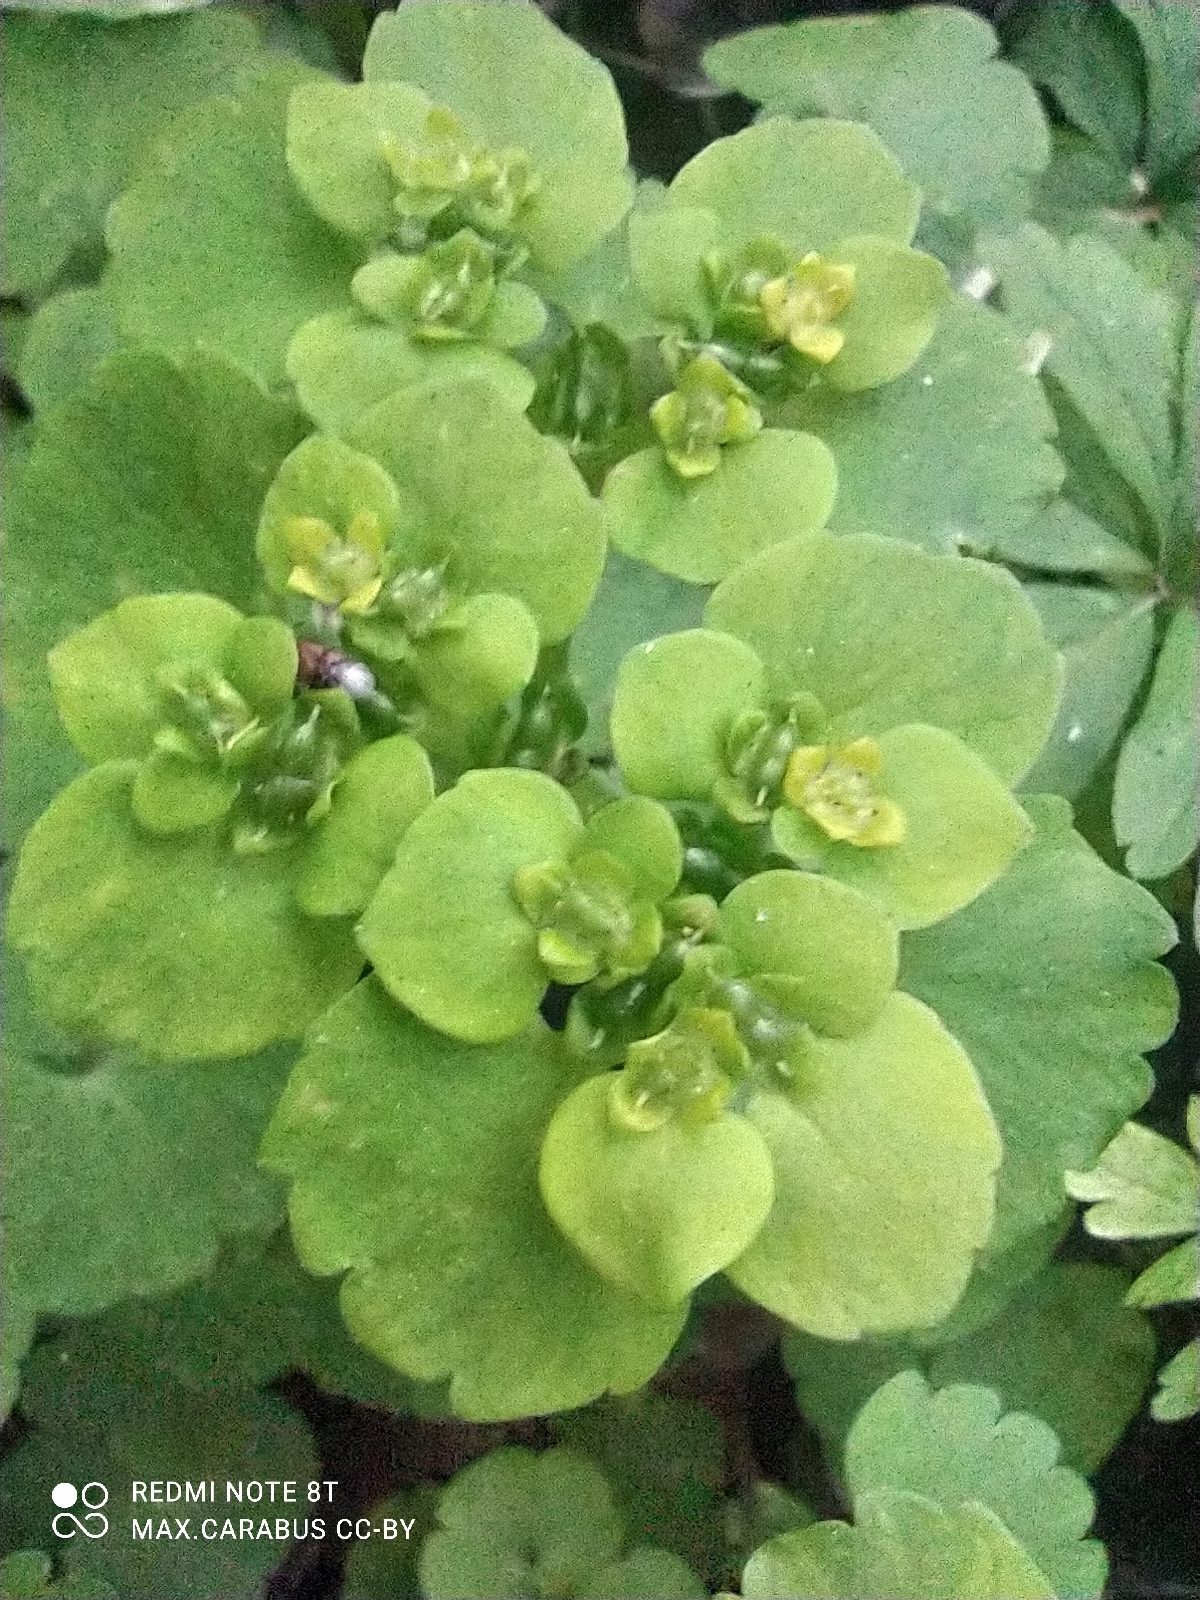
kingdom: Plantae
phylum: Tracheophyta
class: Magnoliopsida
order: Saxifragales
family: Saxifragaceae
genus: Chrysosplenium
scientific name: Chrysosplenium alternifolium
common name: Alternate-leaved golden-saxifrage
